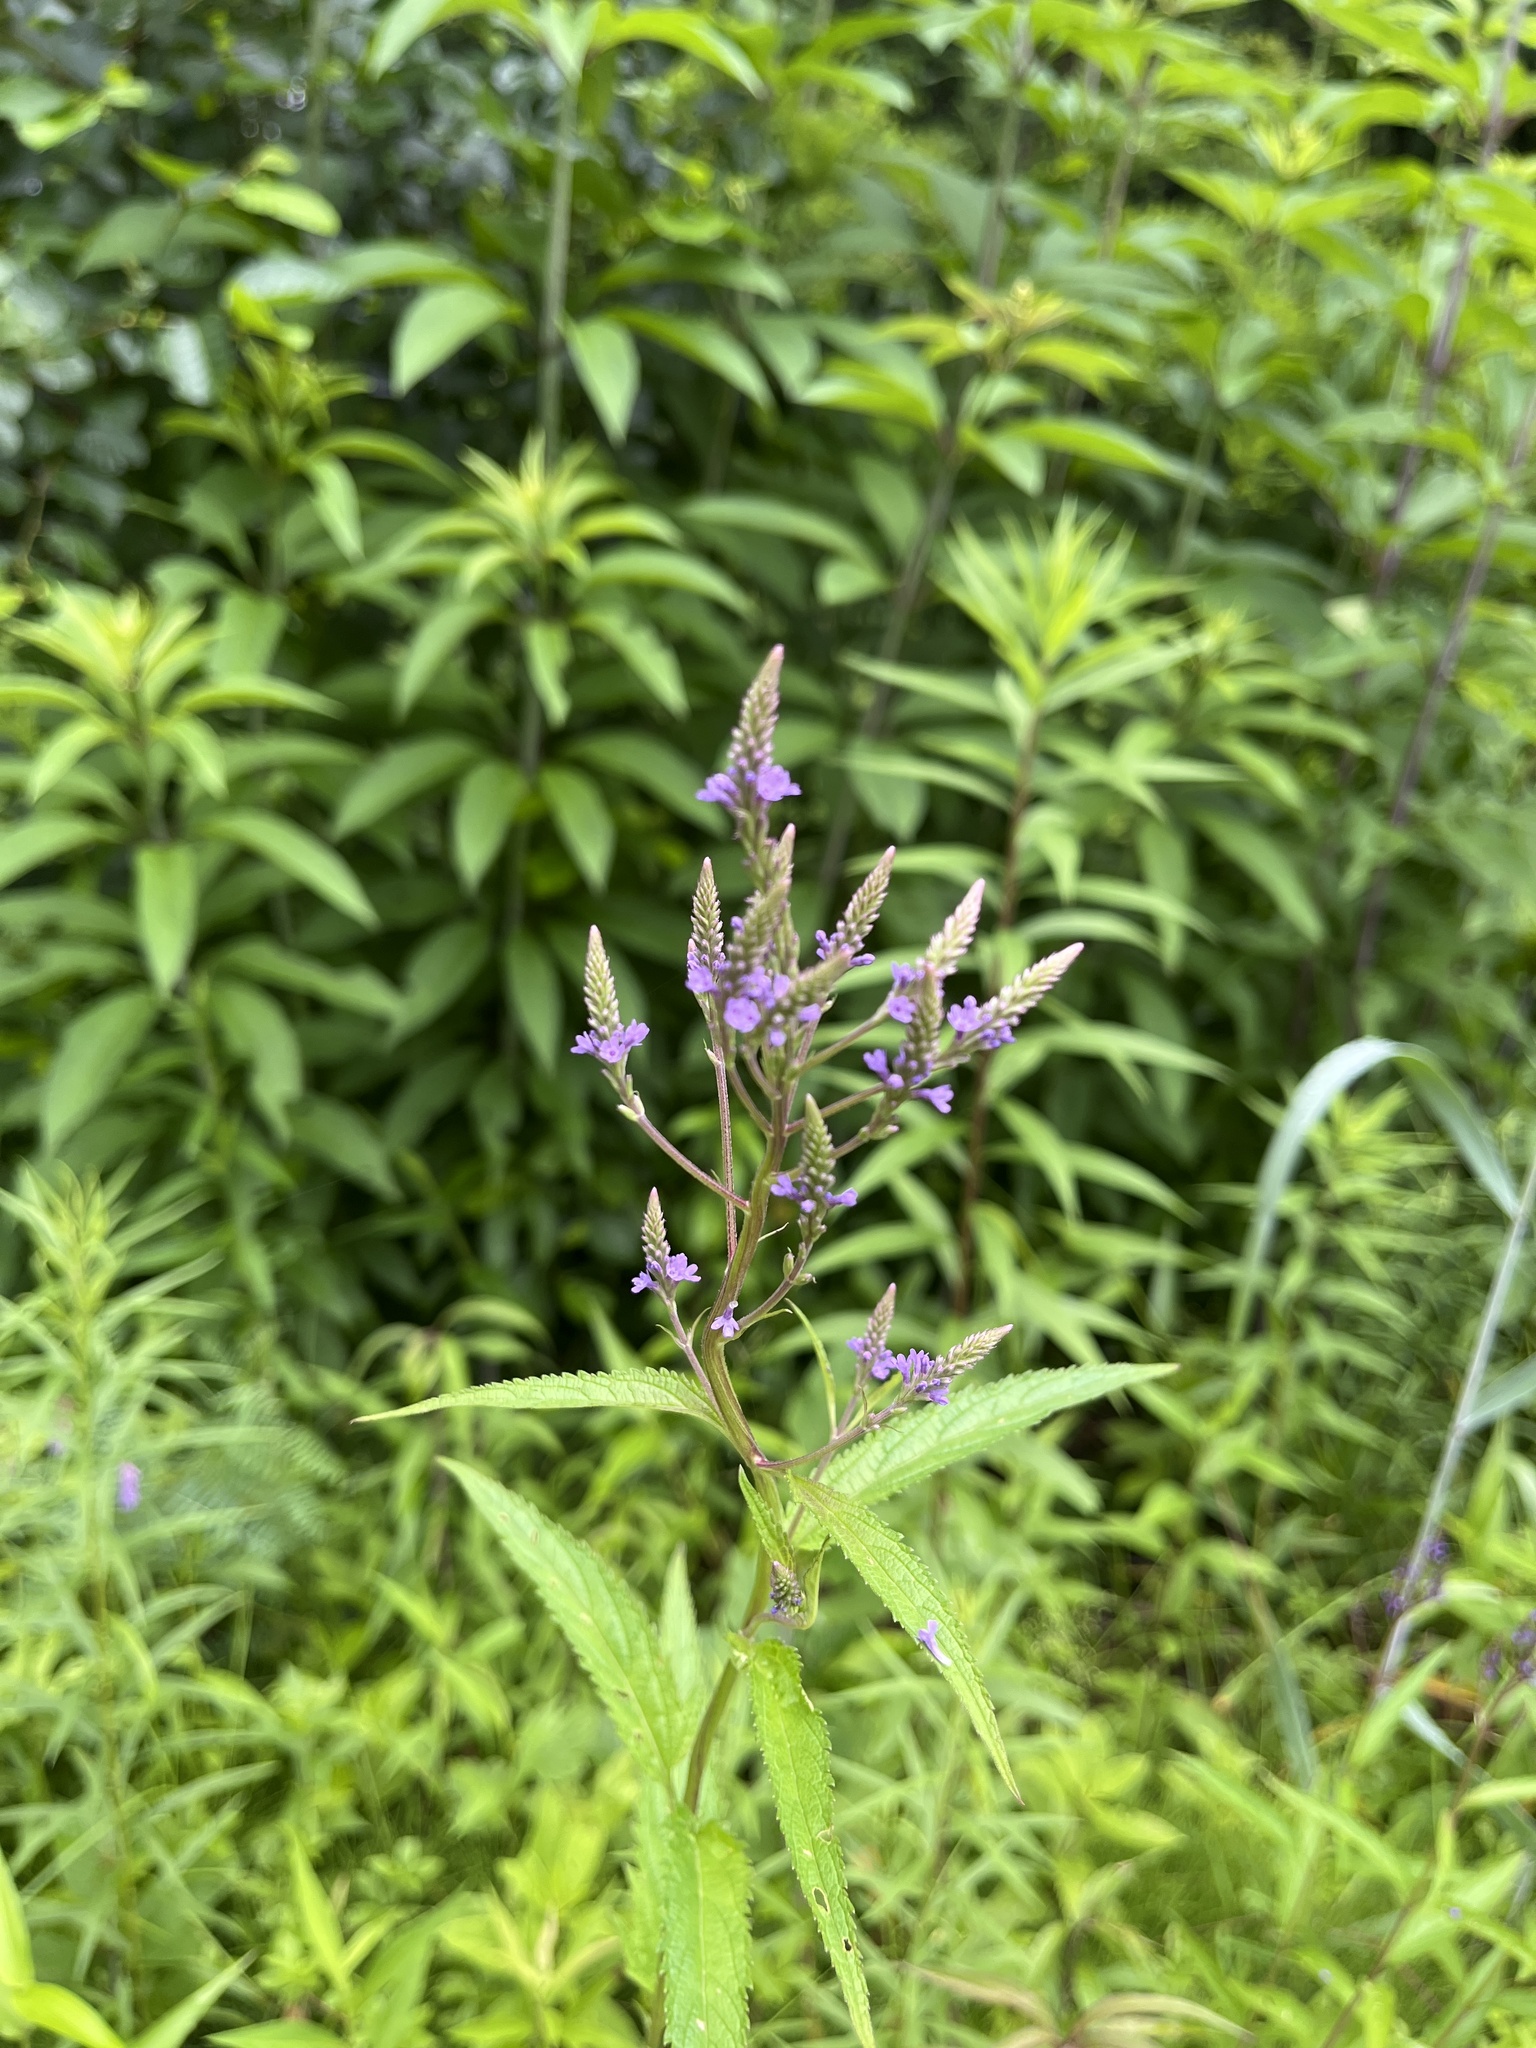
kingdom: Plantae
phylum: Tracheophyta
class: Magnoliopsida
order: Lamiales
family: Verbenaceae
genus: Verbena
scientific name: Verbena hastata
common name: American blue vervain
